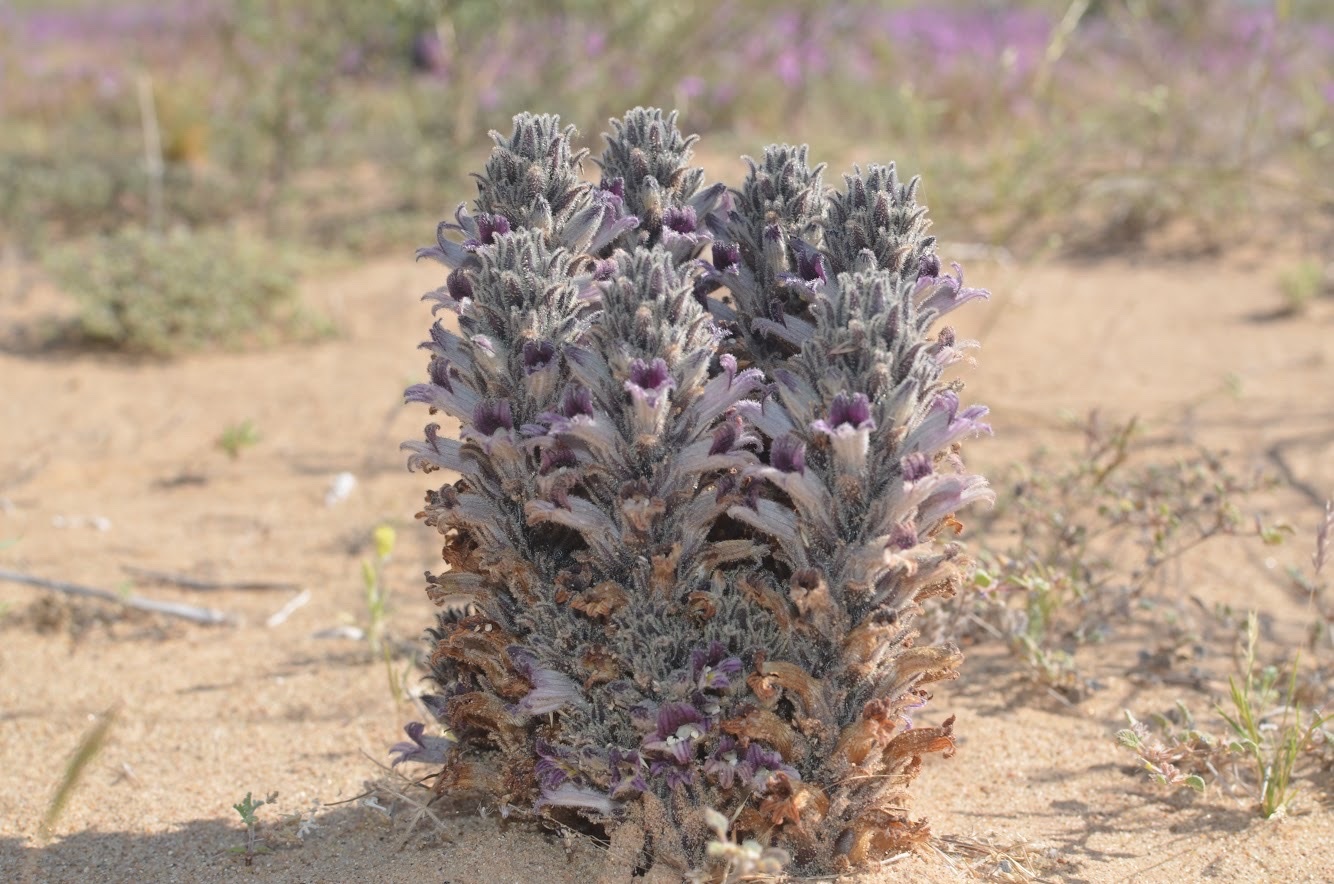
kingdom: Plantae
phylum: Tracheophyta
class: Magnoliopsida
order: Lamiales
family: Orobanchaceae
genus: Aphyllon
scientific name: Aphyllon cooperi
